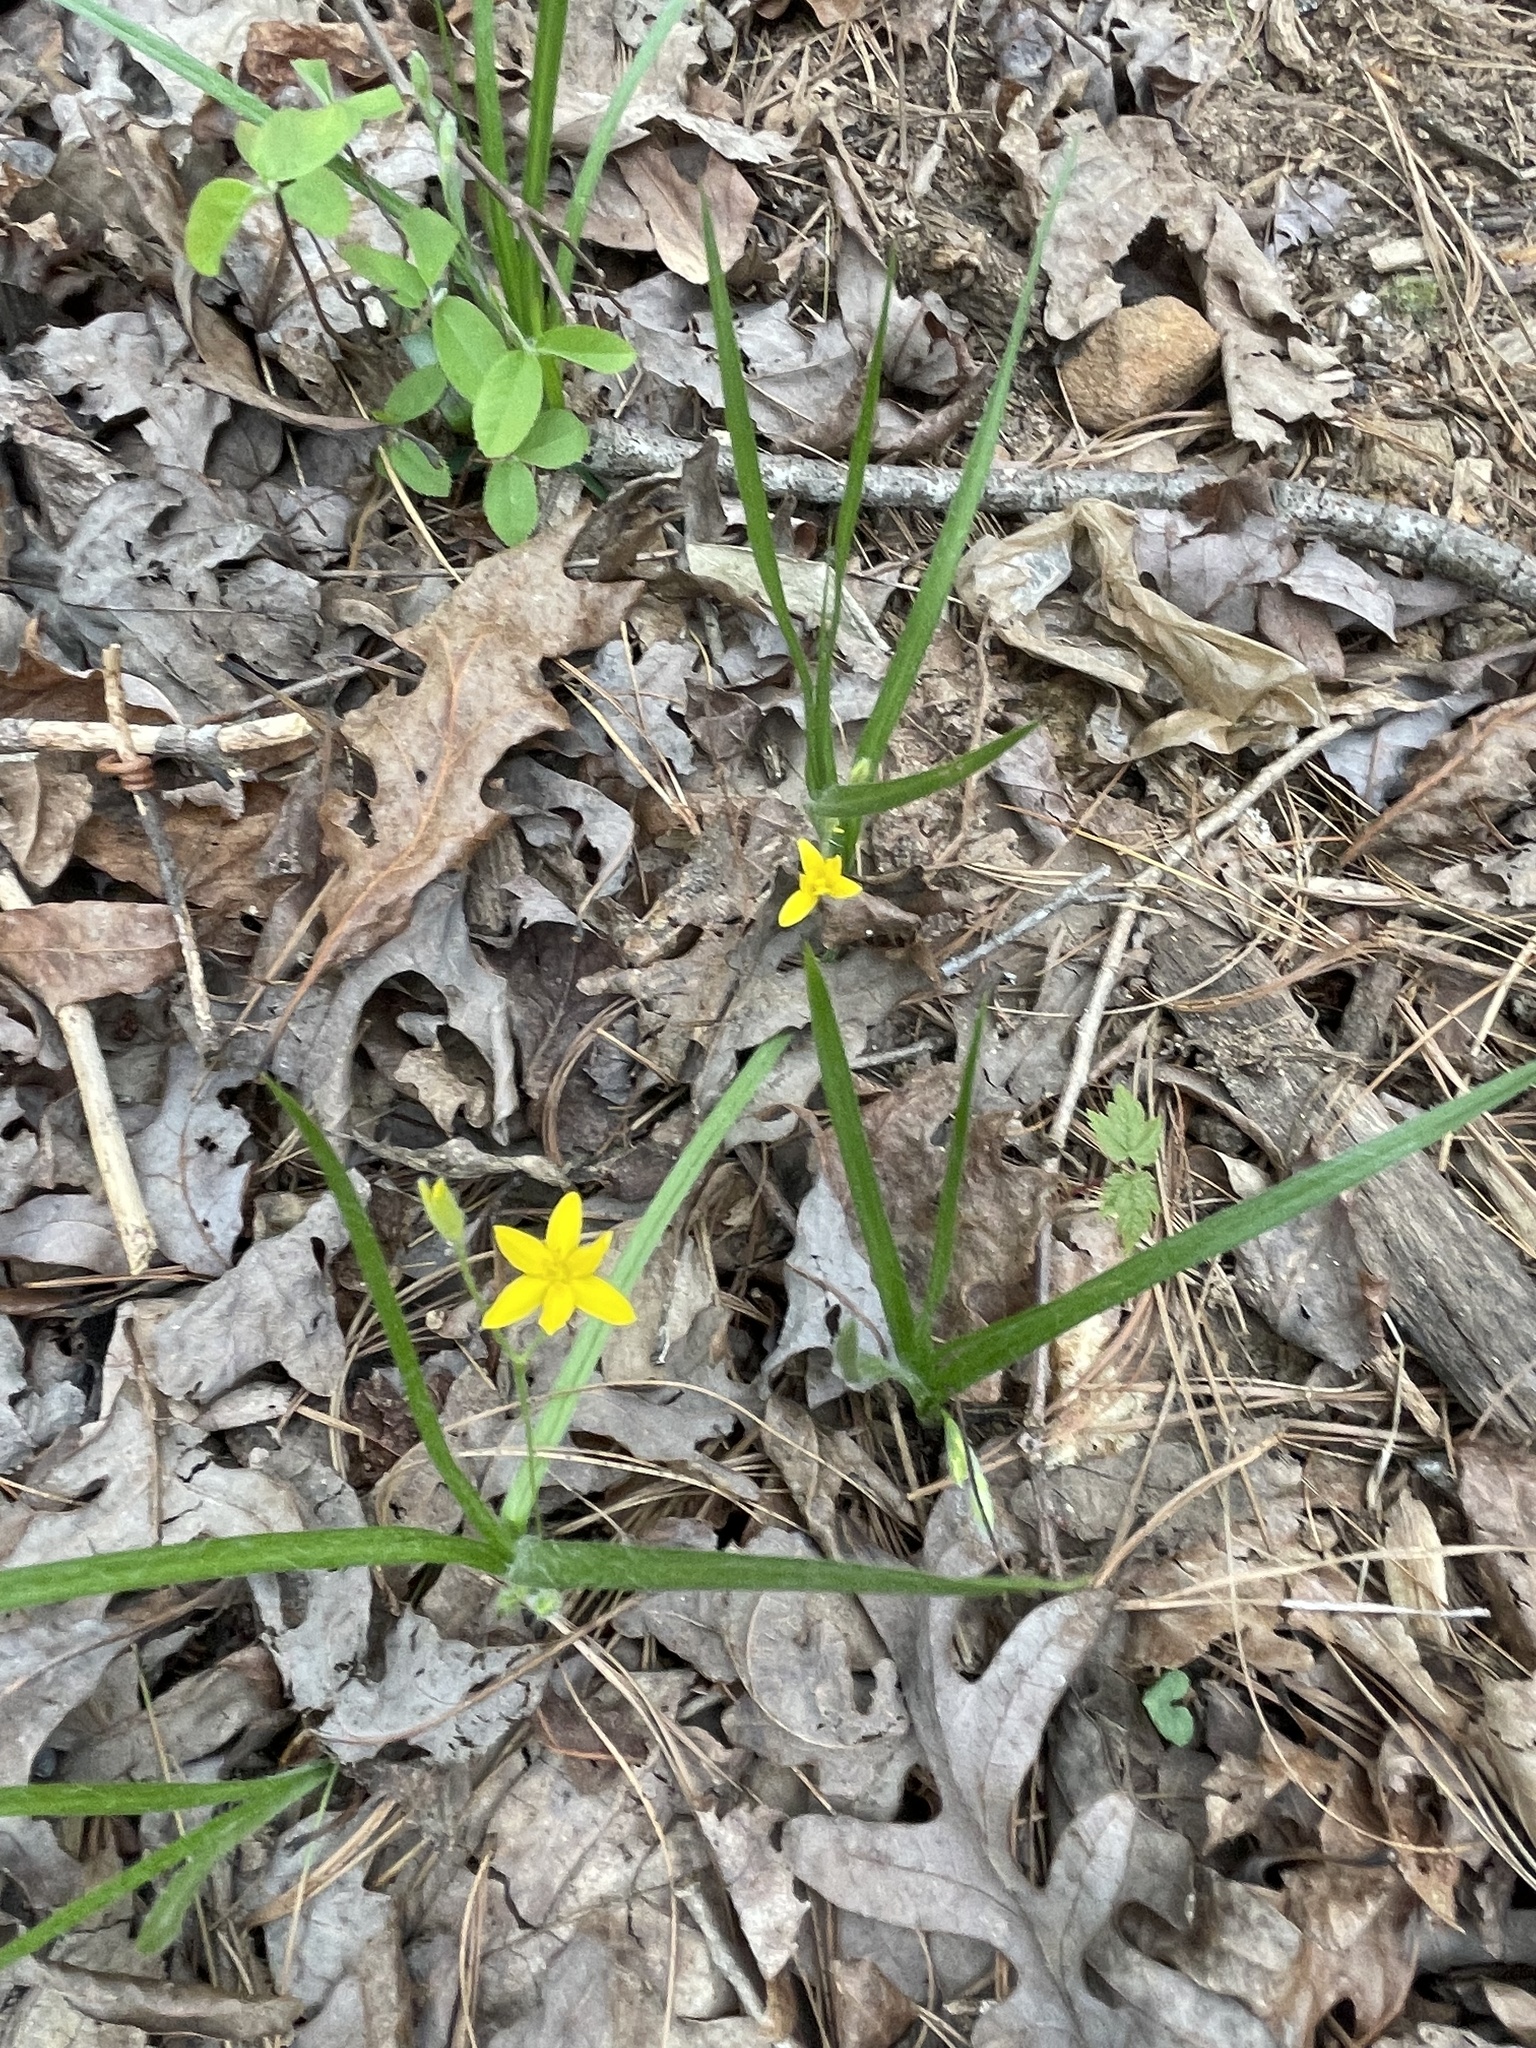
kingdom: Plantae
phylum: Tracheophyta
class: Liliopsida
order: Asparagales
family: Hypoxidaceae
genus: Hypoxis
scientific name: Hypoxis hirsuta
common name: Common goldstar
